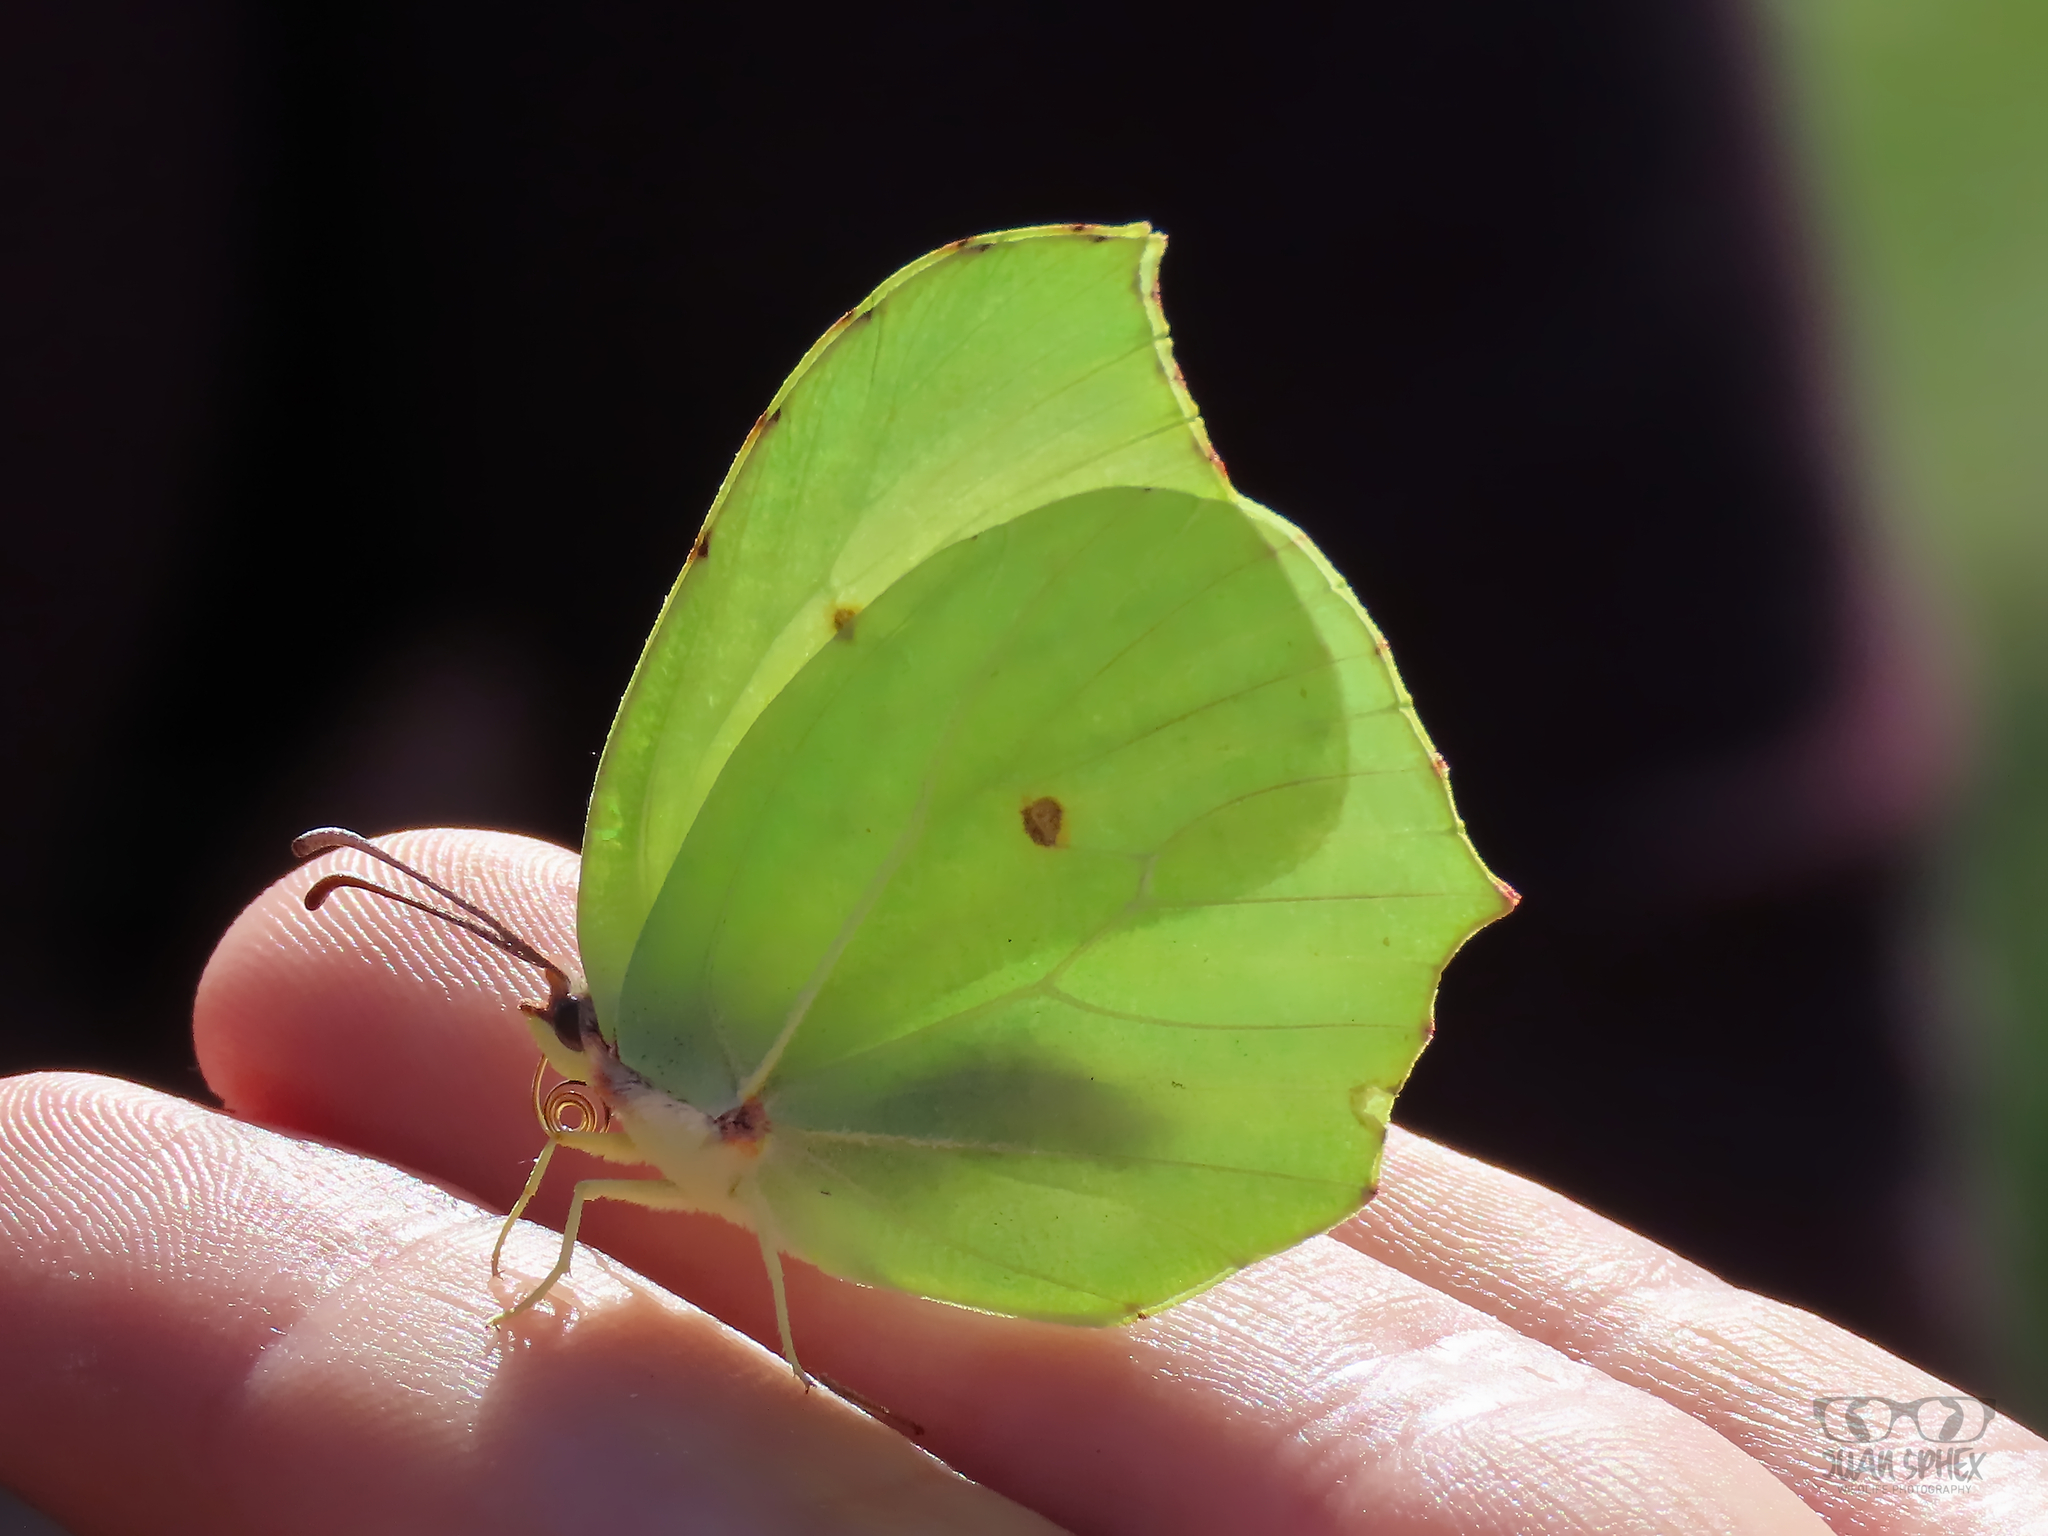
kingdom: Animalia
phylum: Arthropoda
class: Insecta
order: Lepidoptera
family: Pieridae
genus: Gonepteryx
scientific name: Gonepteryx rhamni
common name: Brimstone
